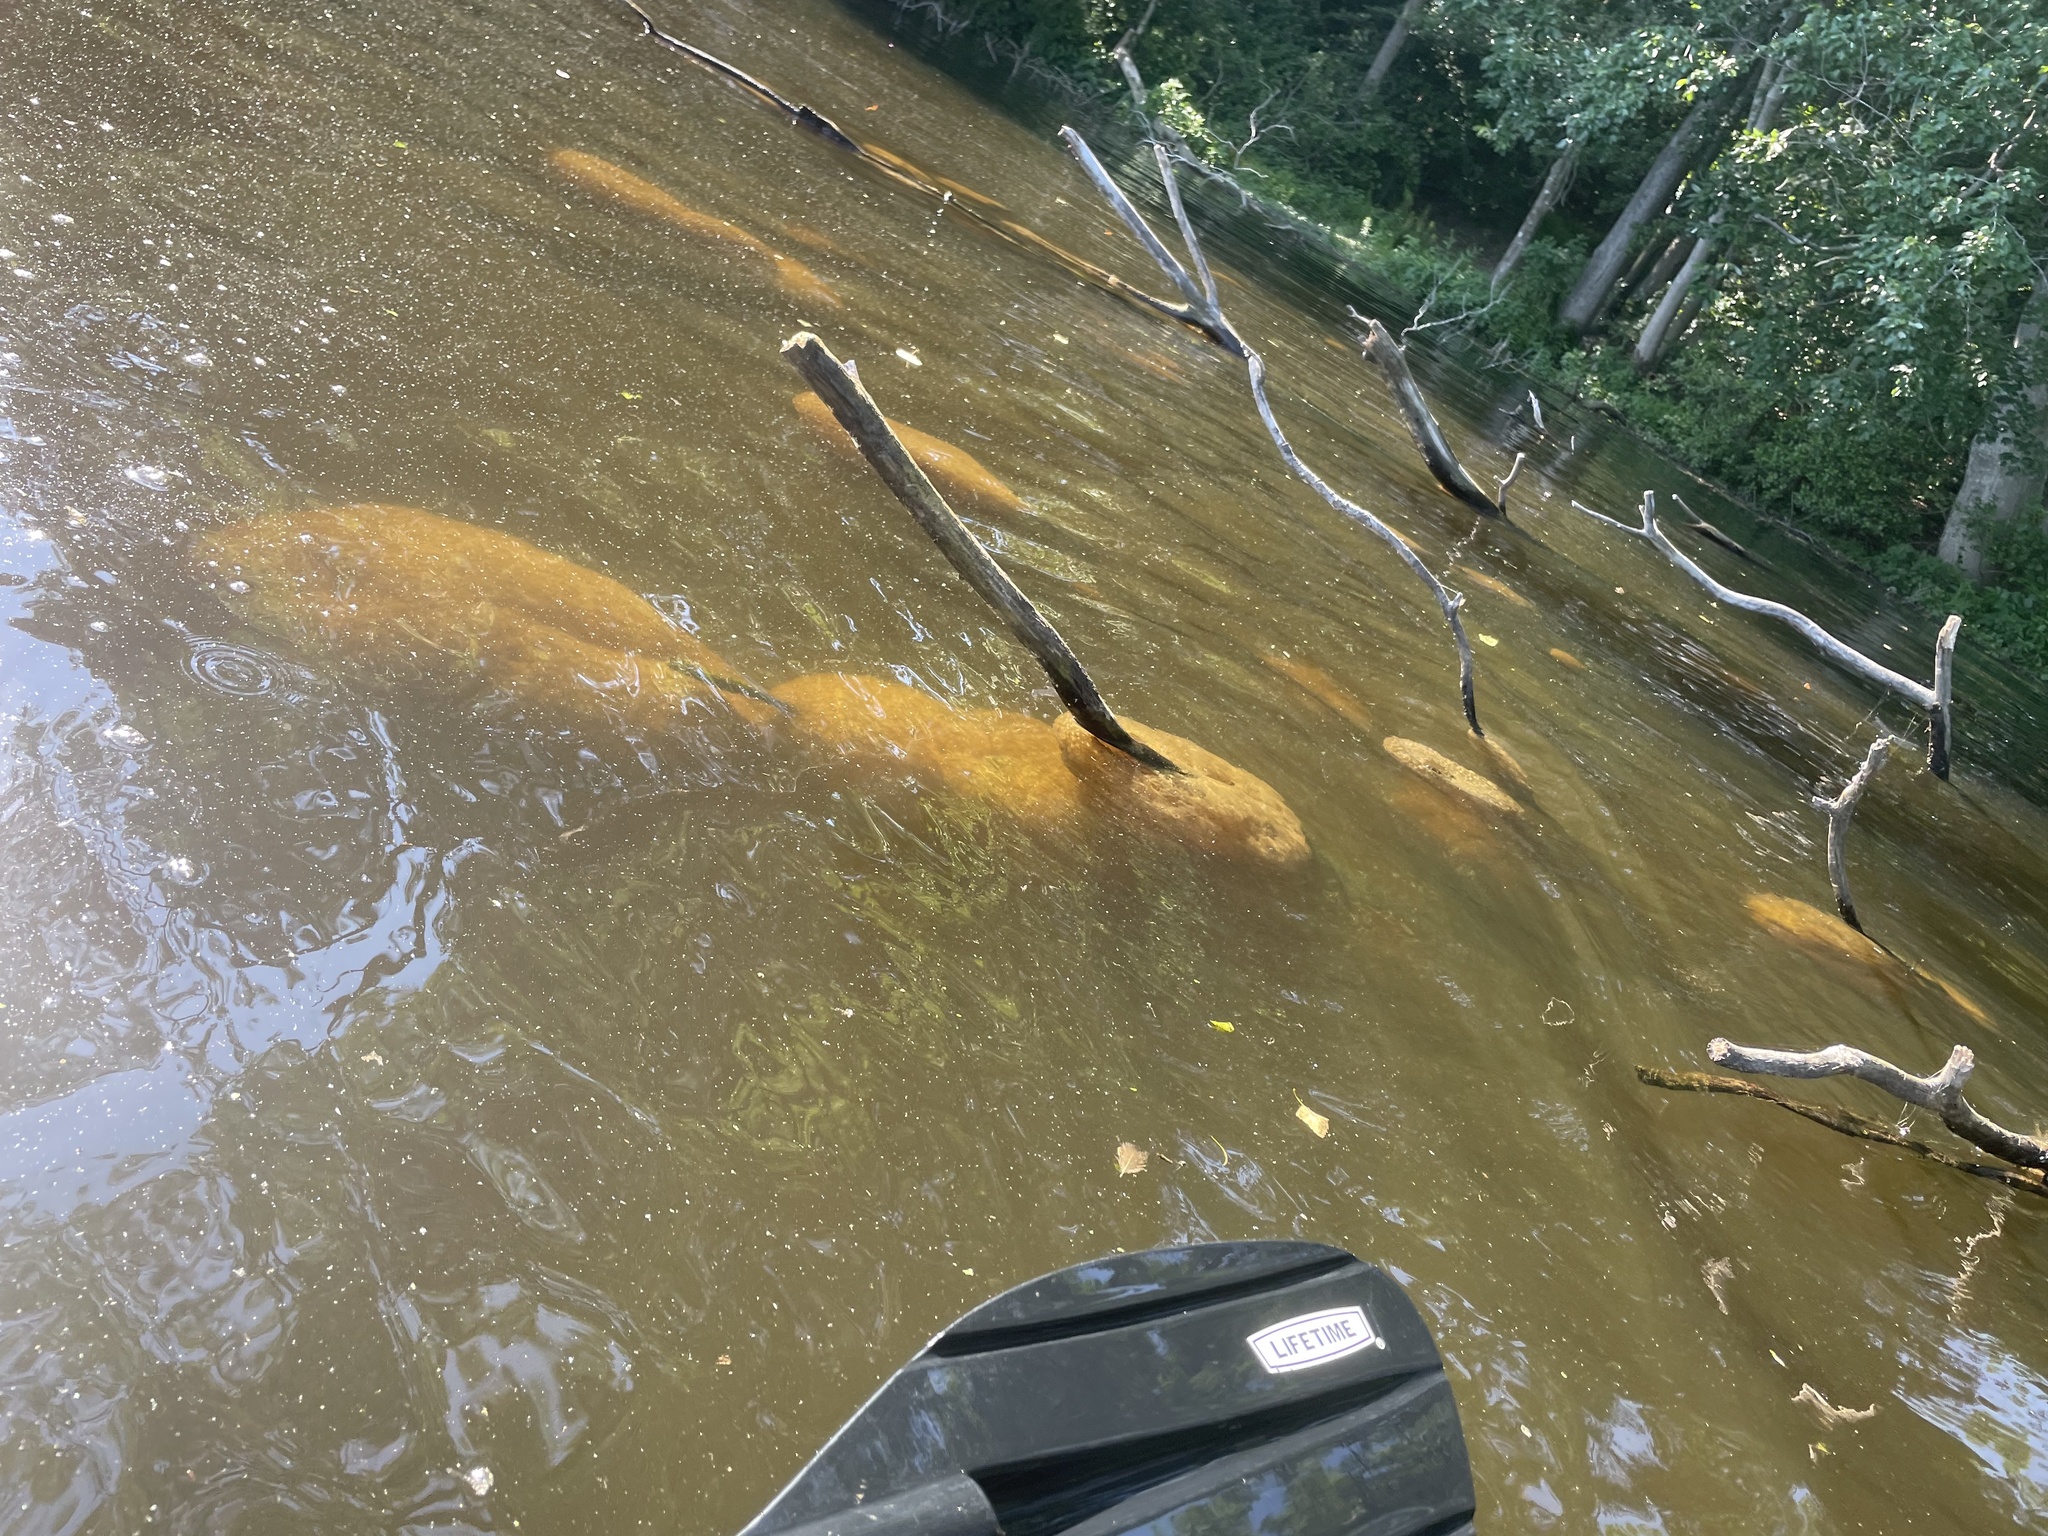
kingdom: Animalia
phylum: Bryozoa
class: Phylactolaemata
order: Plumatellida
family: Pectinatellidae
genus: Pectinatella
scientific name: Pectinatella magnifica
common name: Magnificent bryozoan
